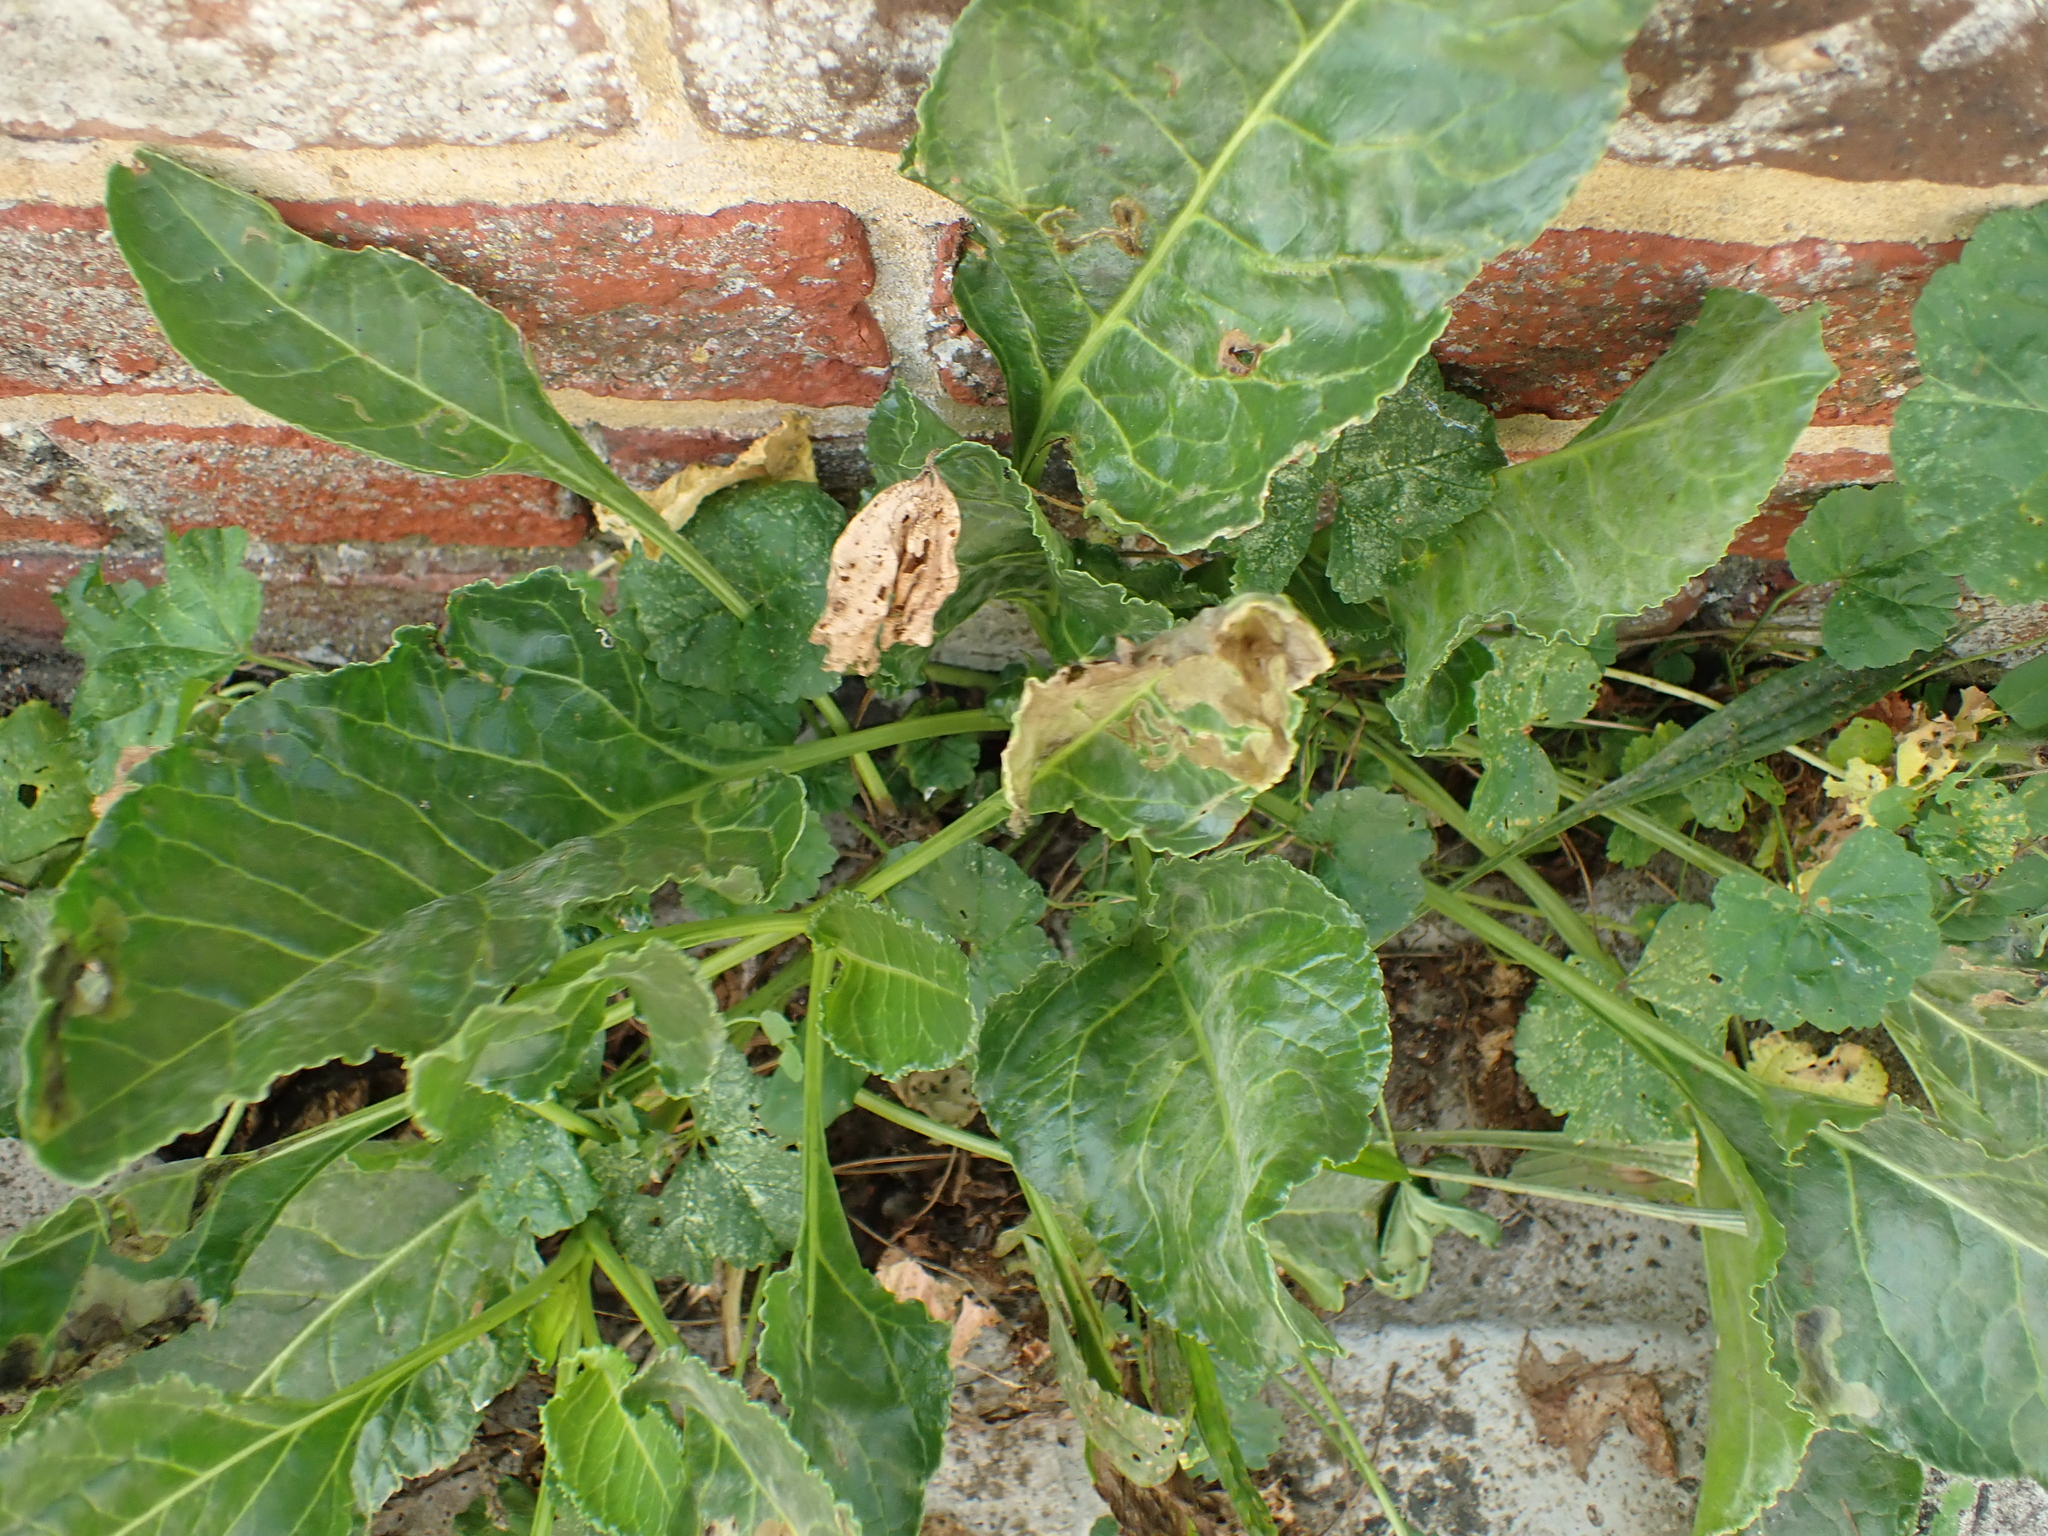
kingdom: Plantae
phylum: Tracheophyta
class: Magnoliopsida
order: Caryophyllales
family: Amaranthaceae
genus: Beta
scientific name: Beta vulgaris
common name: Beet
